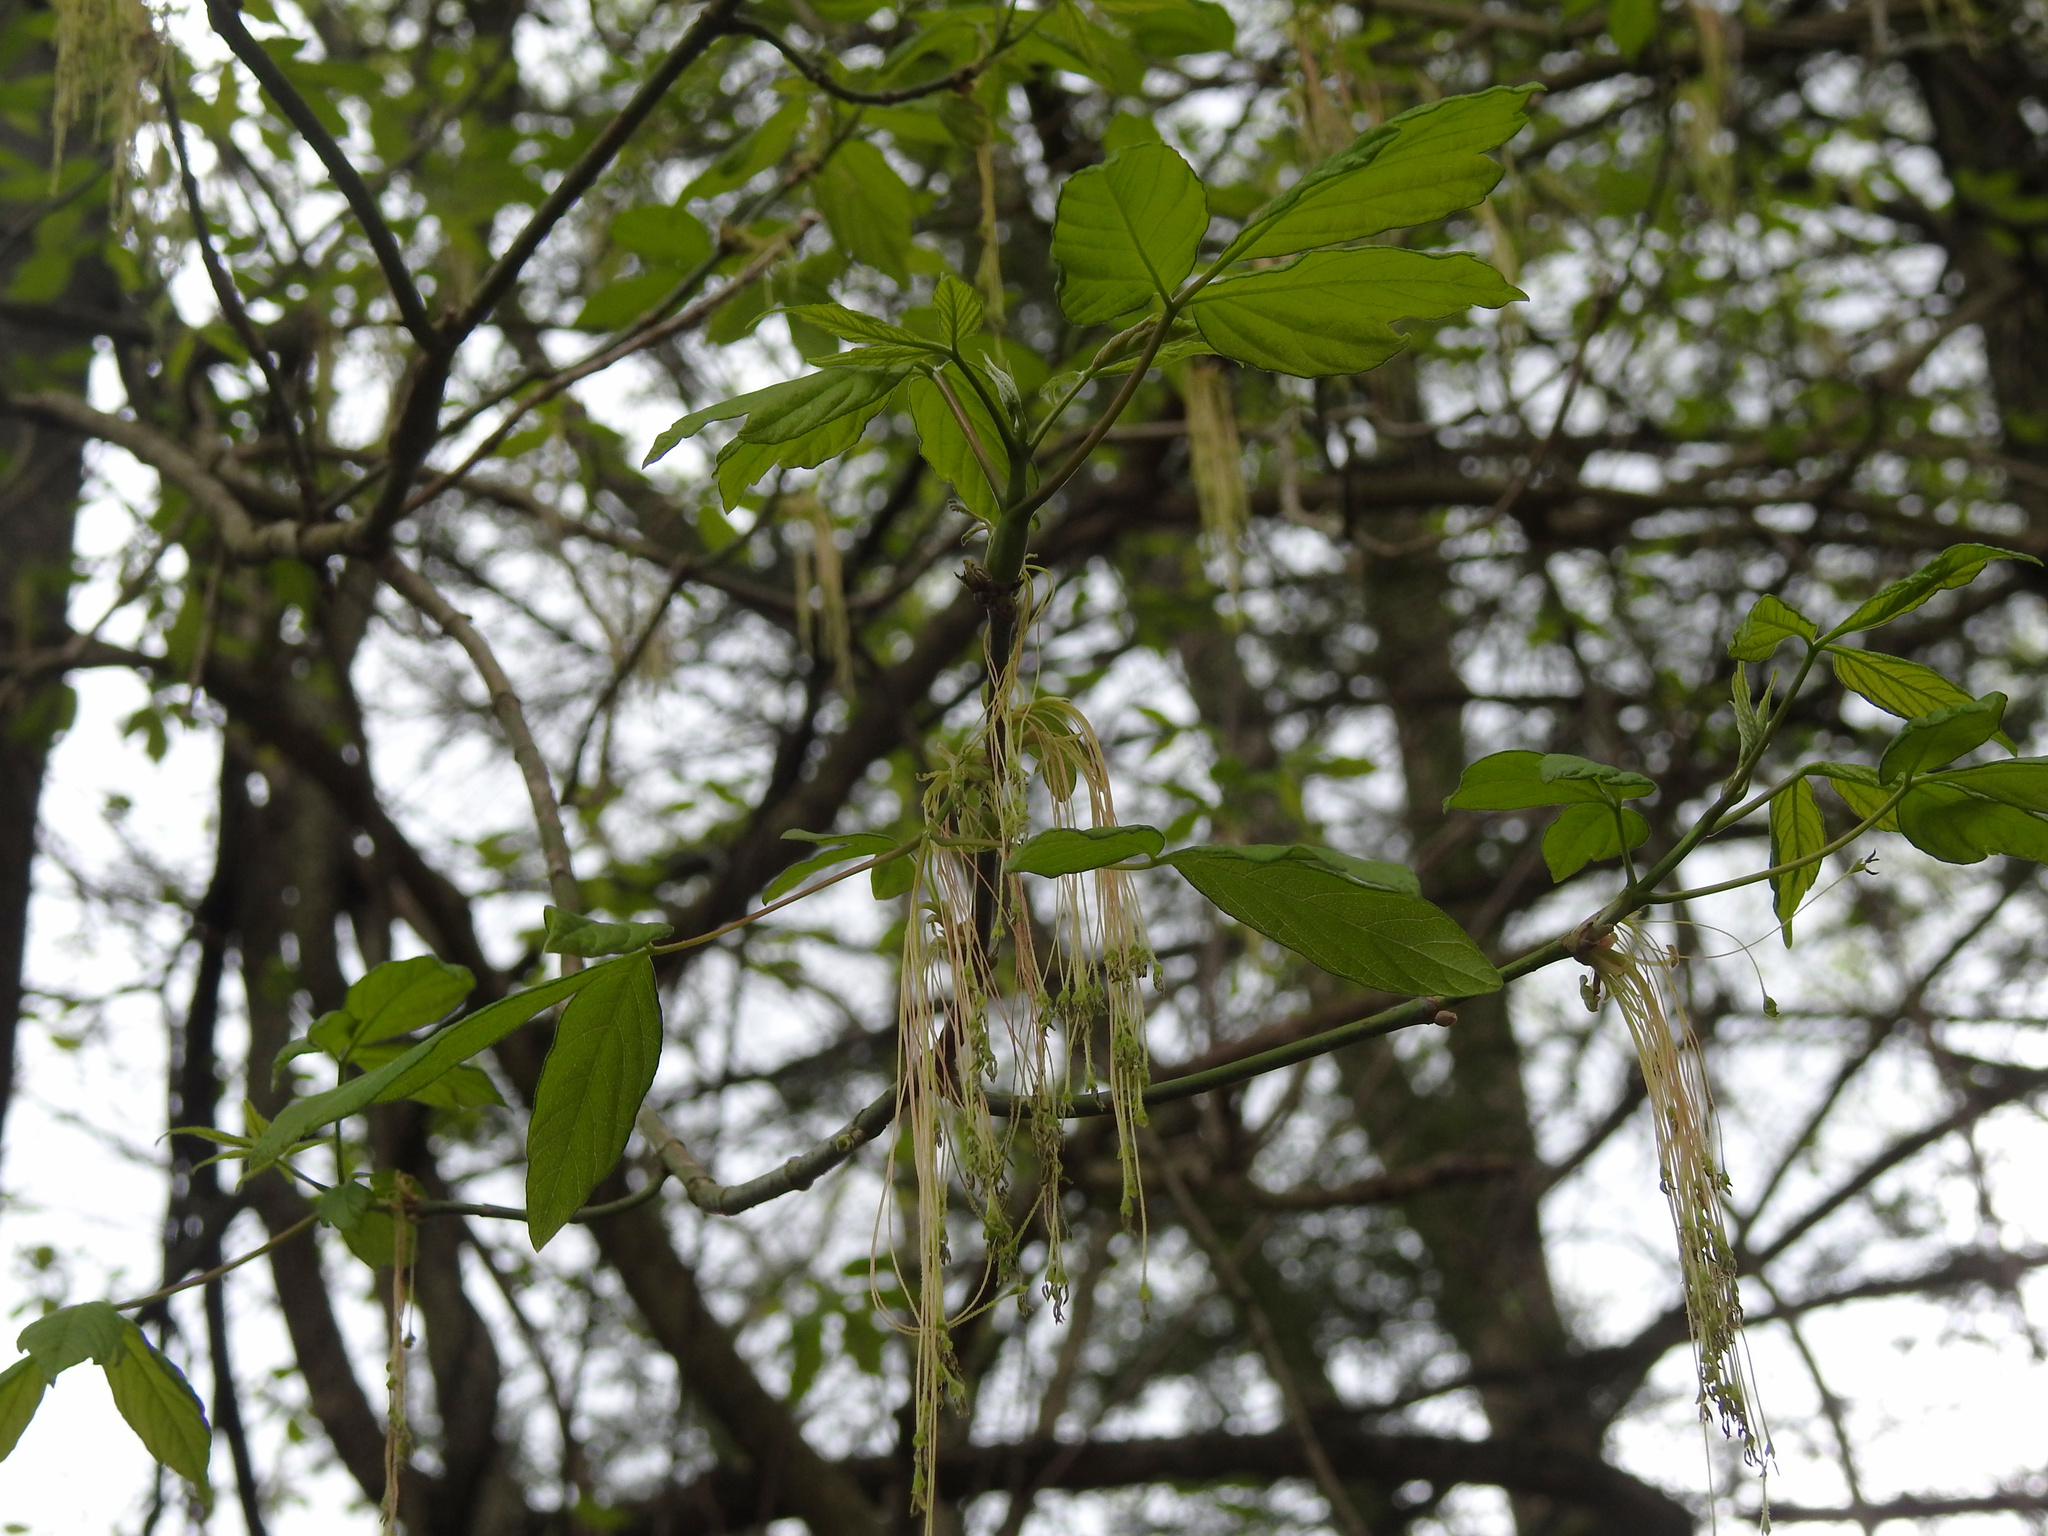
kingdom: Plantae
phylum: Tracheophyta
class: Magnoliopsida
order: Sapindales
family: Sapindaceae
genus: Acer
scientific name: Acer negundo
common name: Ashleaf maple
